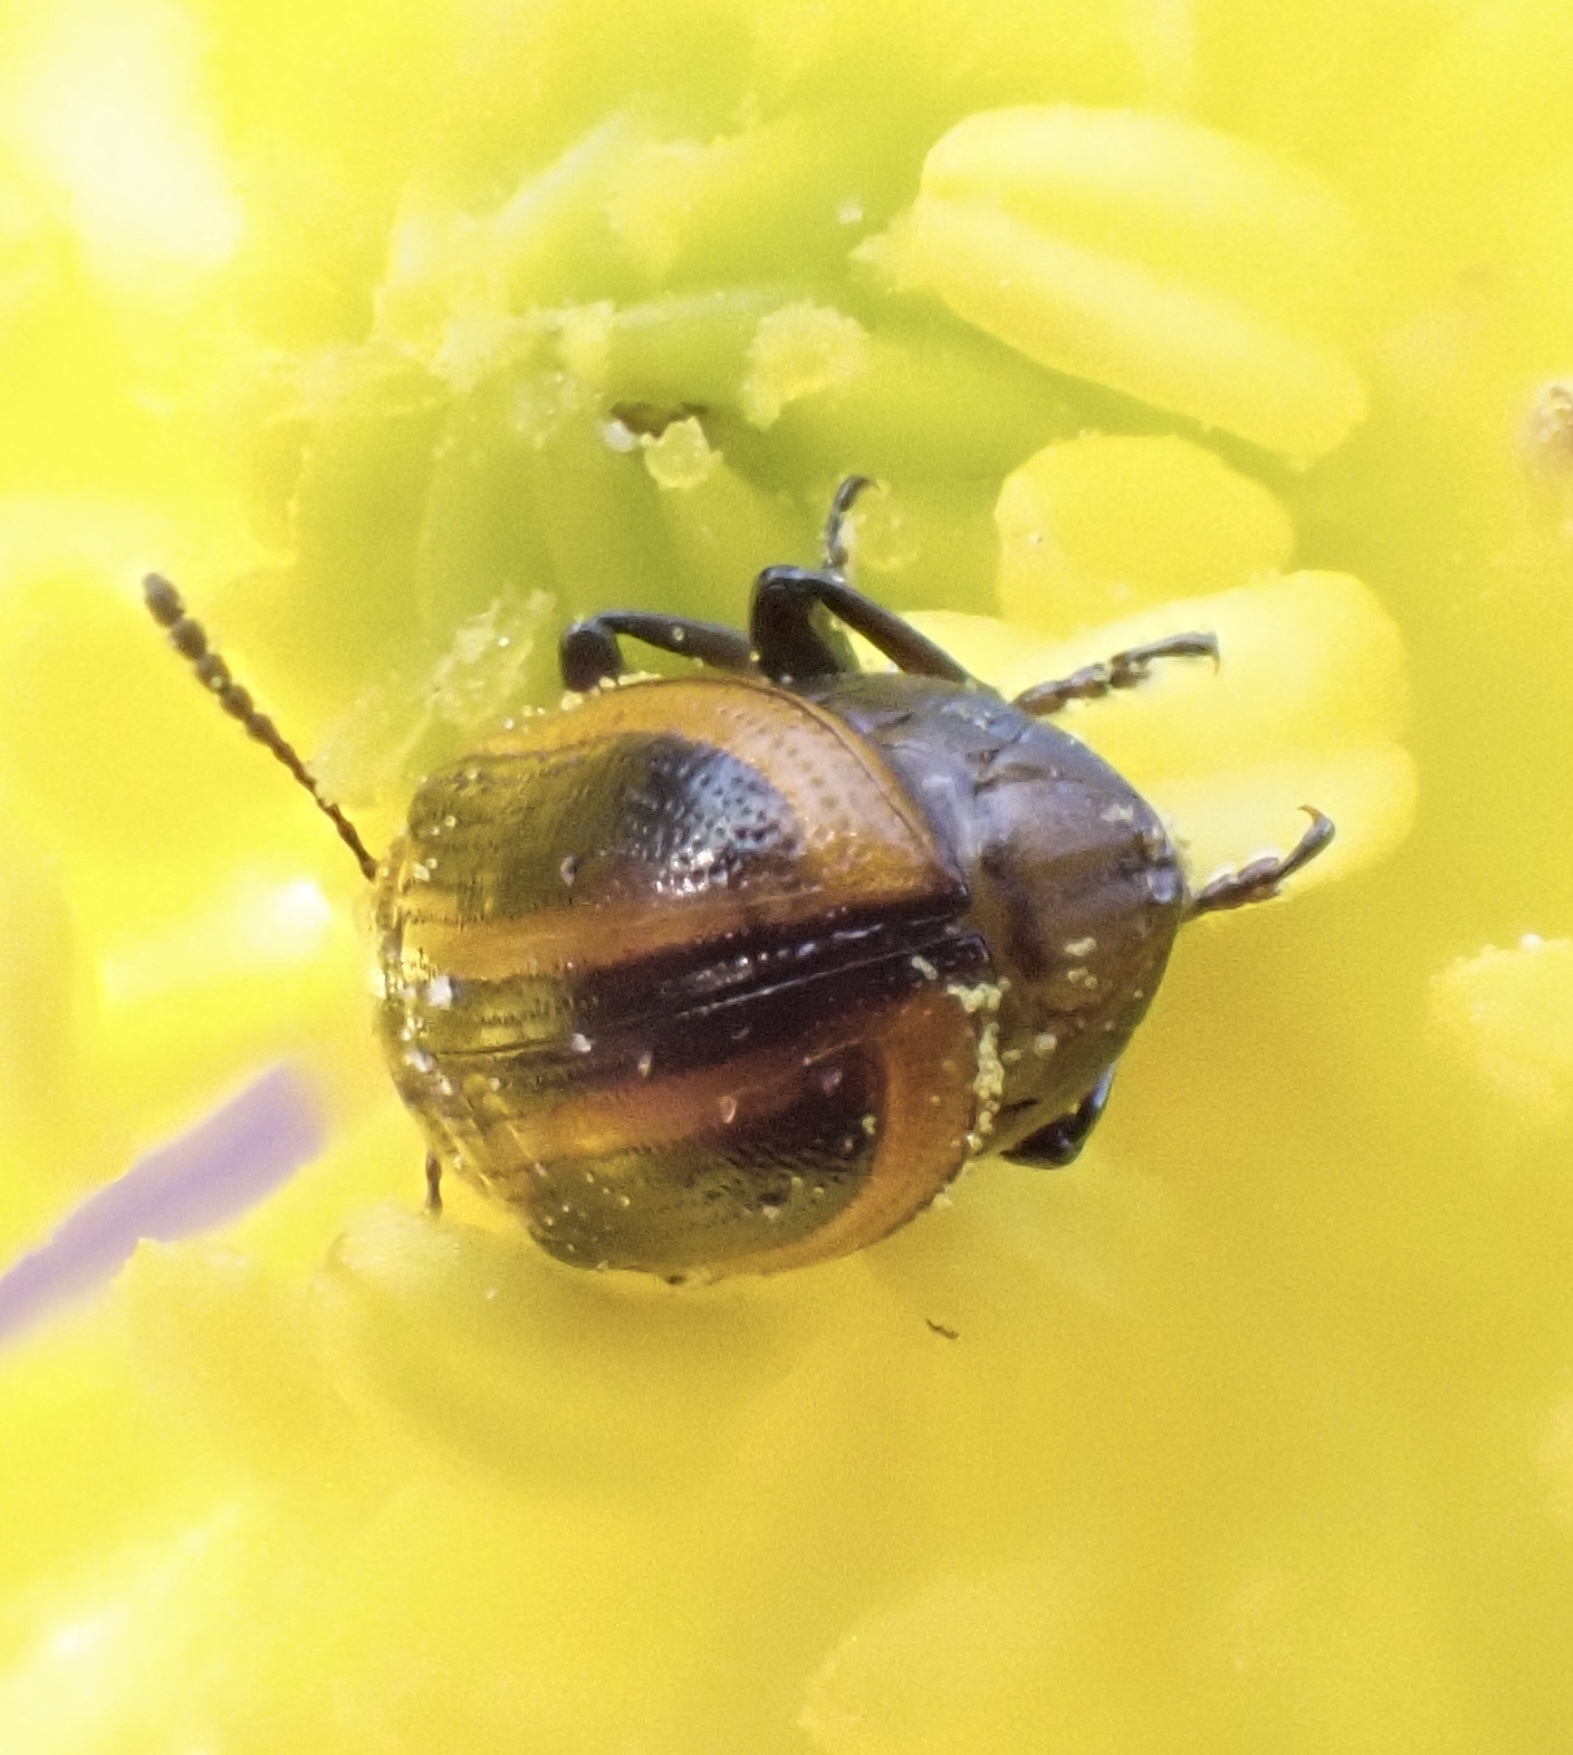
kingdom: Animalia
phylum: Arthropoda
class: Insecta
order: Coleoptera
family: Chrysomelidae
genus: Prasocuris
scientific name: Prasocuris vittata
